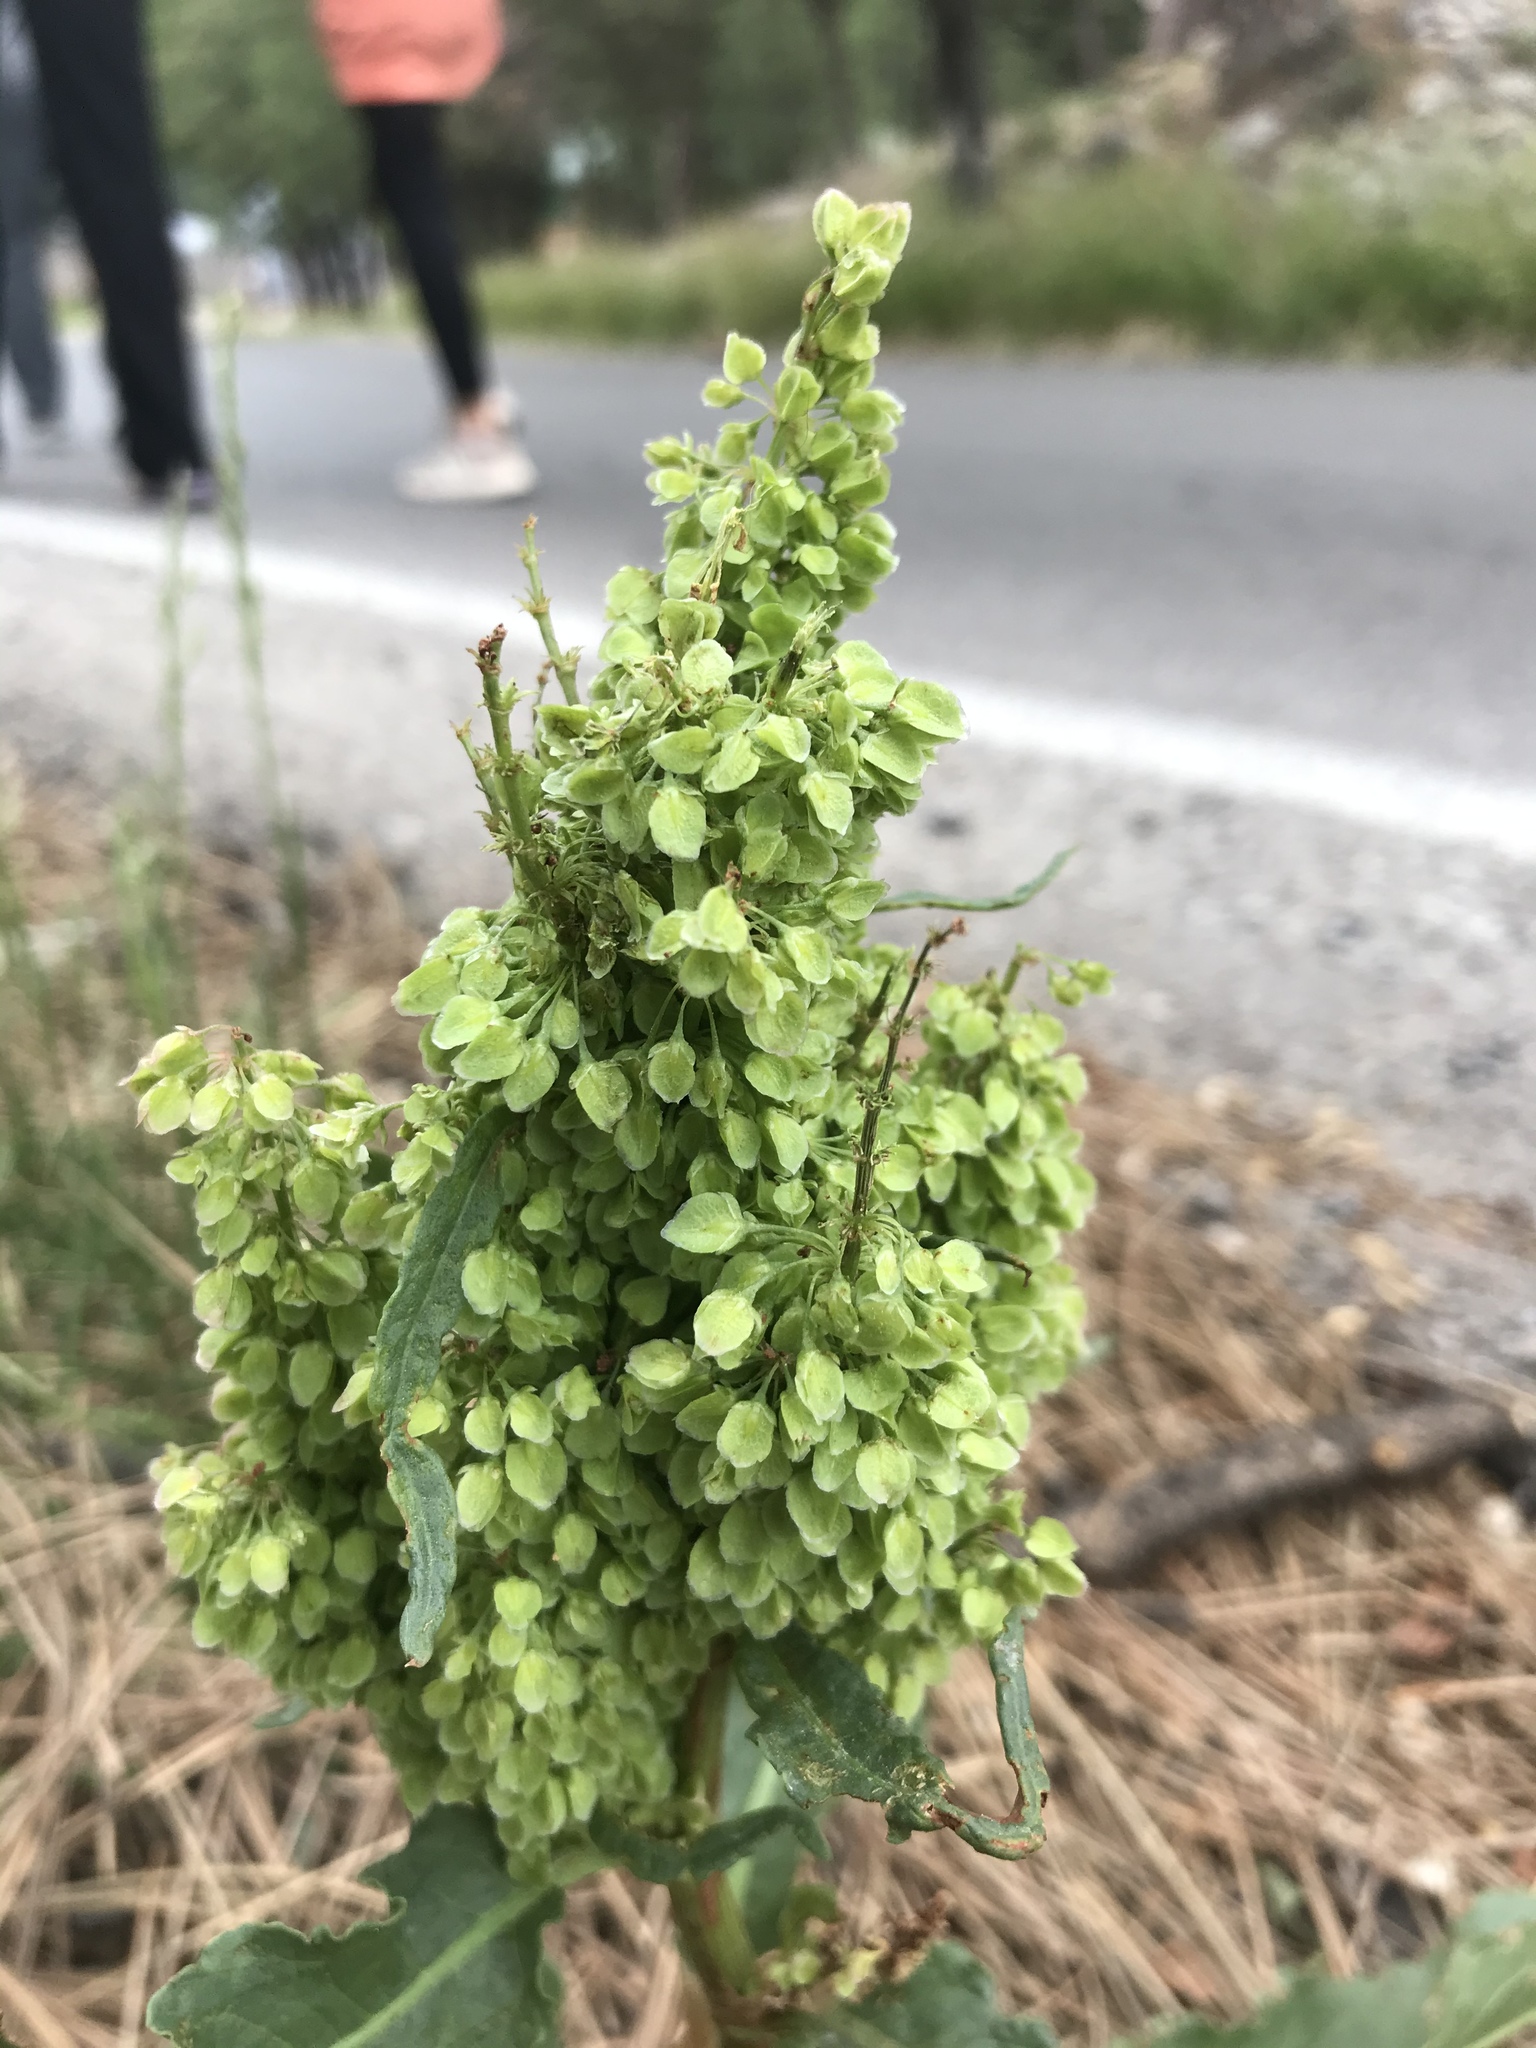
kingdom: Plantae
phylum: Tracheophyta
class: Magnoliopsida
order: Caryophyllales
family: Polygonaceae
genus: Rumex
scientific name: Rumex crispus
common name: Curled dock
